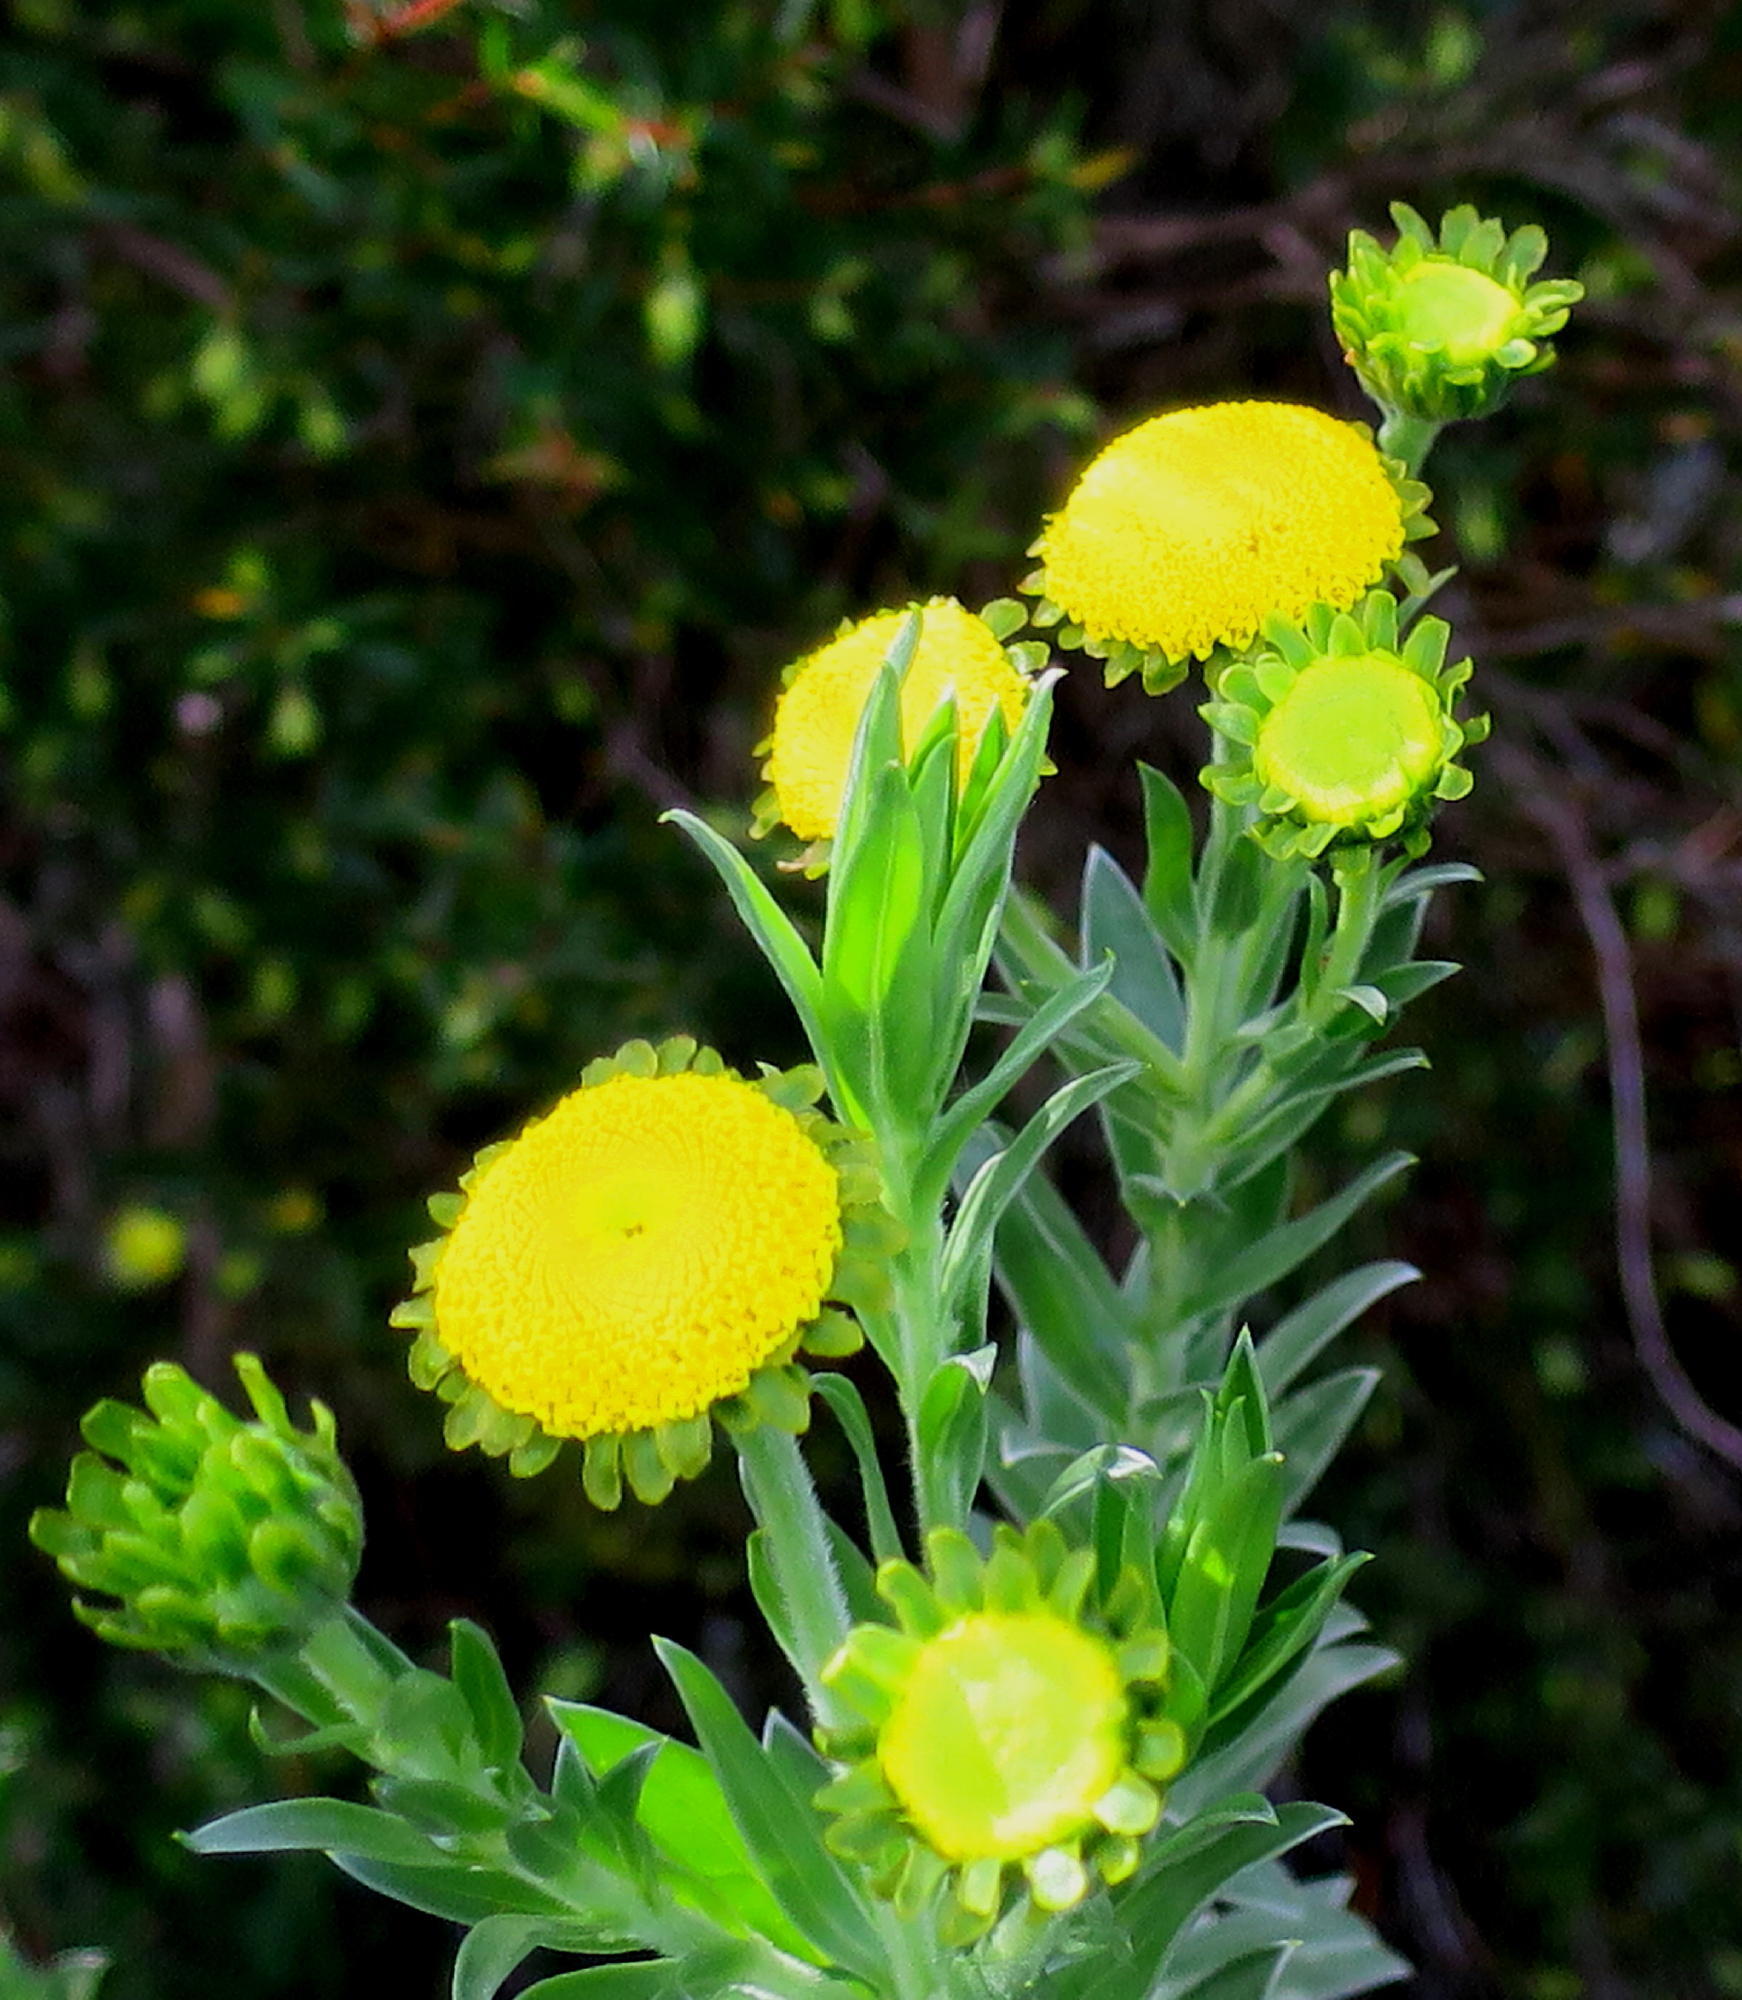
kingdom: Plantae
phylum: Tracheophyta
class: Magnoliopsida
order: Asterales
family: Asteraceae
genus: Schistostephium
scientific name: Schistostephium umbellatum
